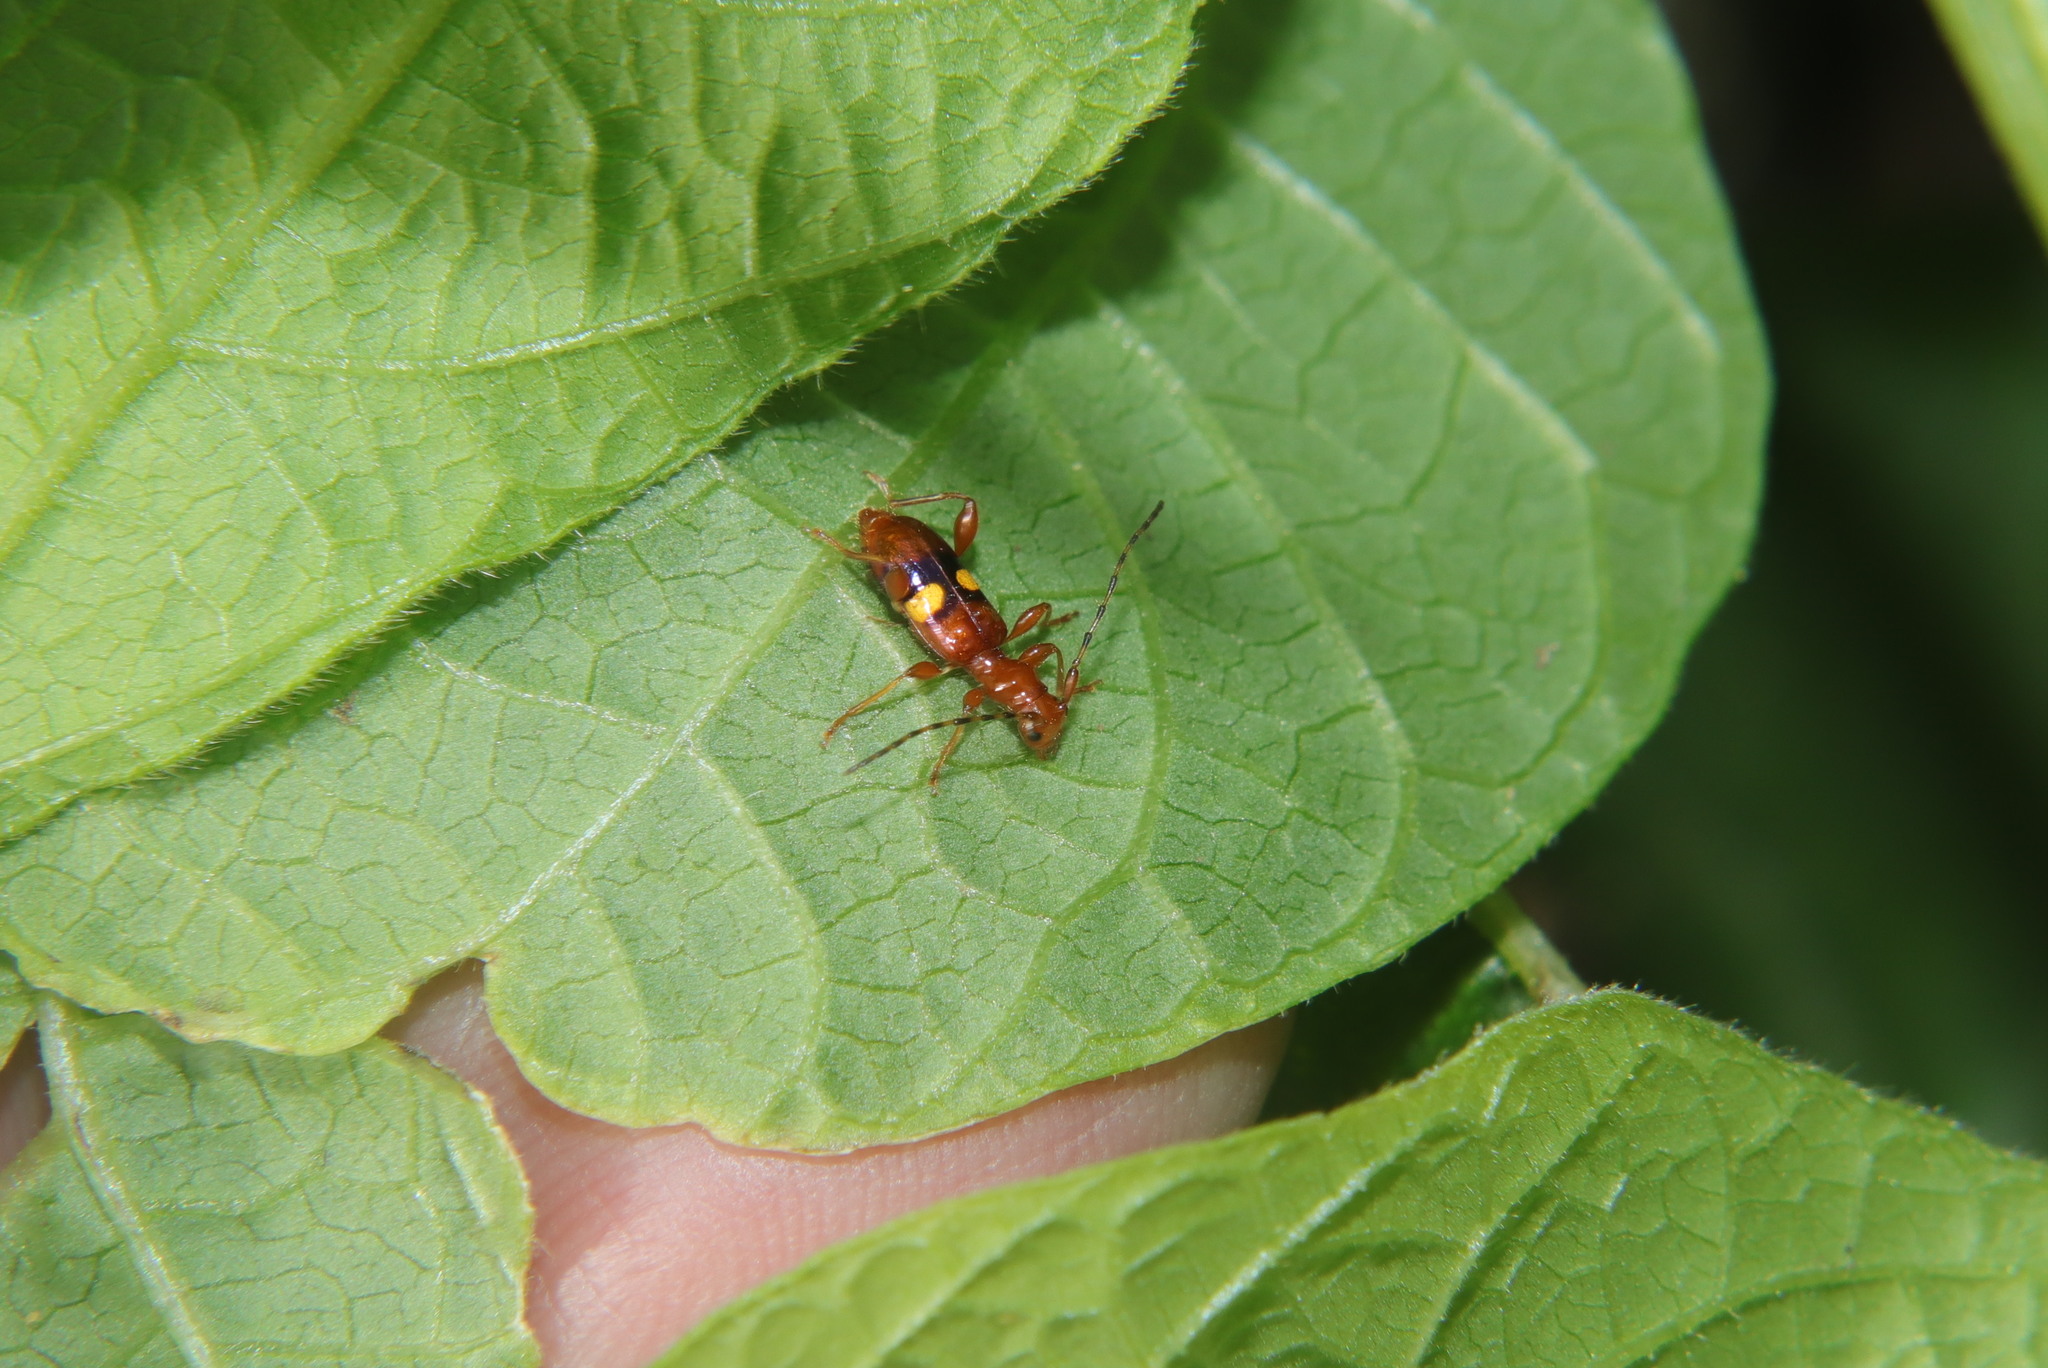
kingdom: Animalia
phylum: Arthropoda
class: Insecta
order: Coleoptera
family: Cerambycidae
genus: Zorion
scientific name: Zorion australe
